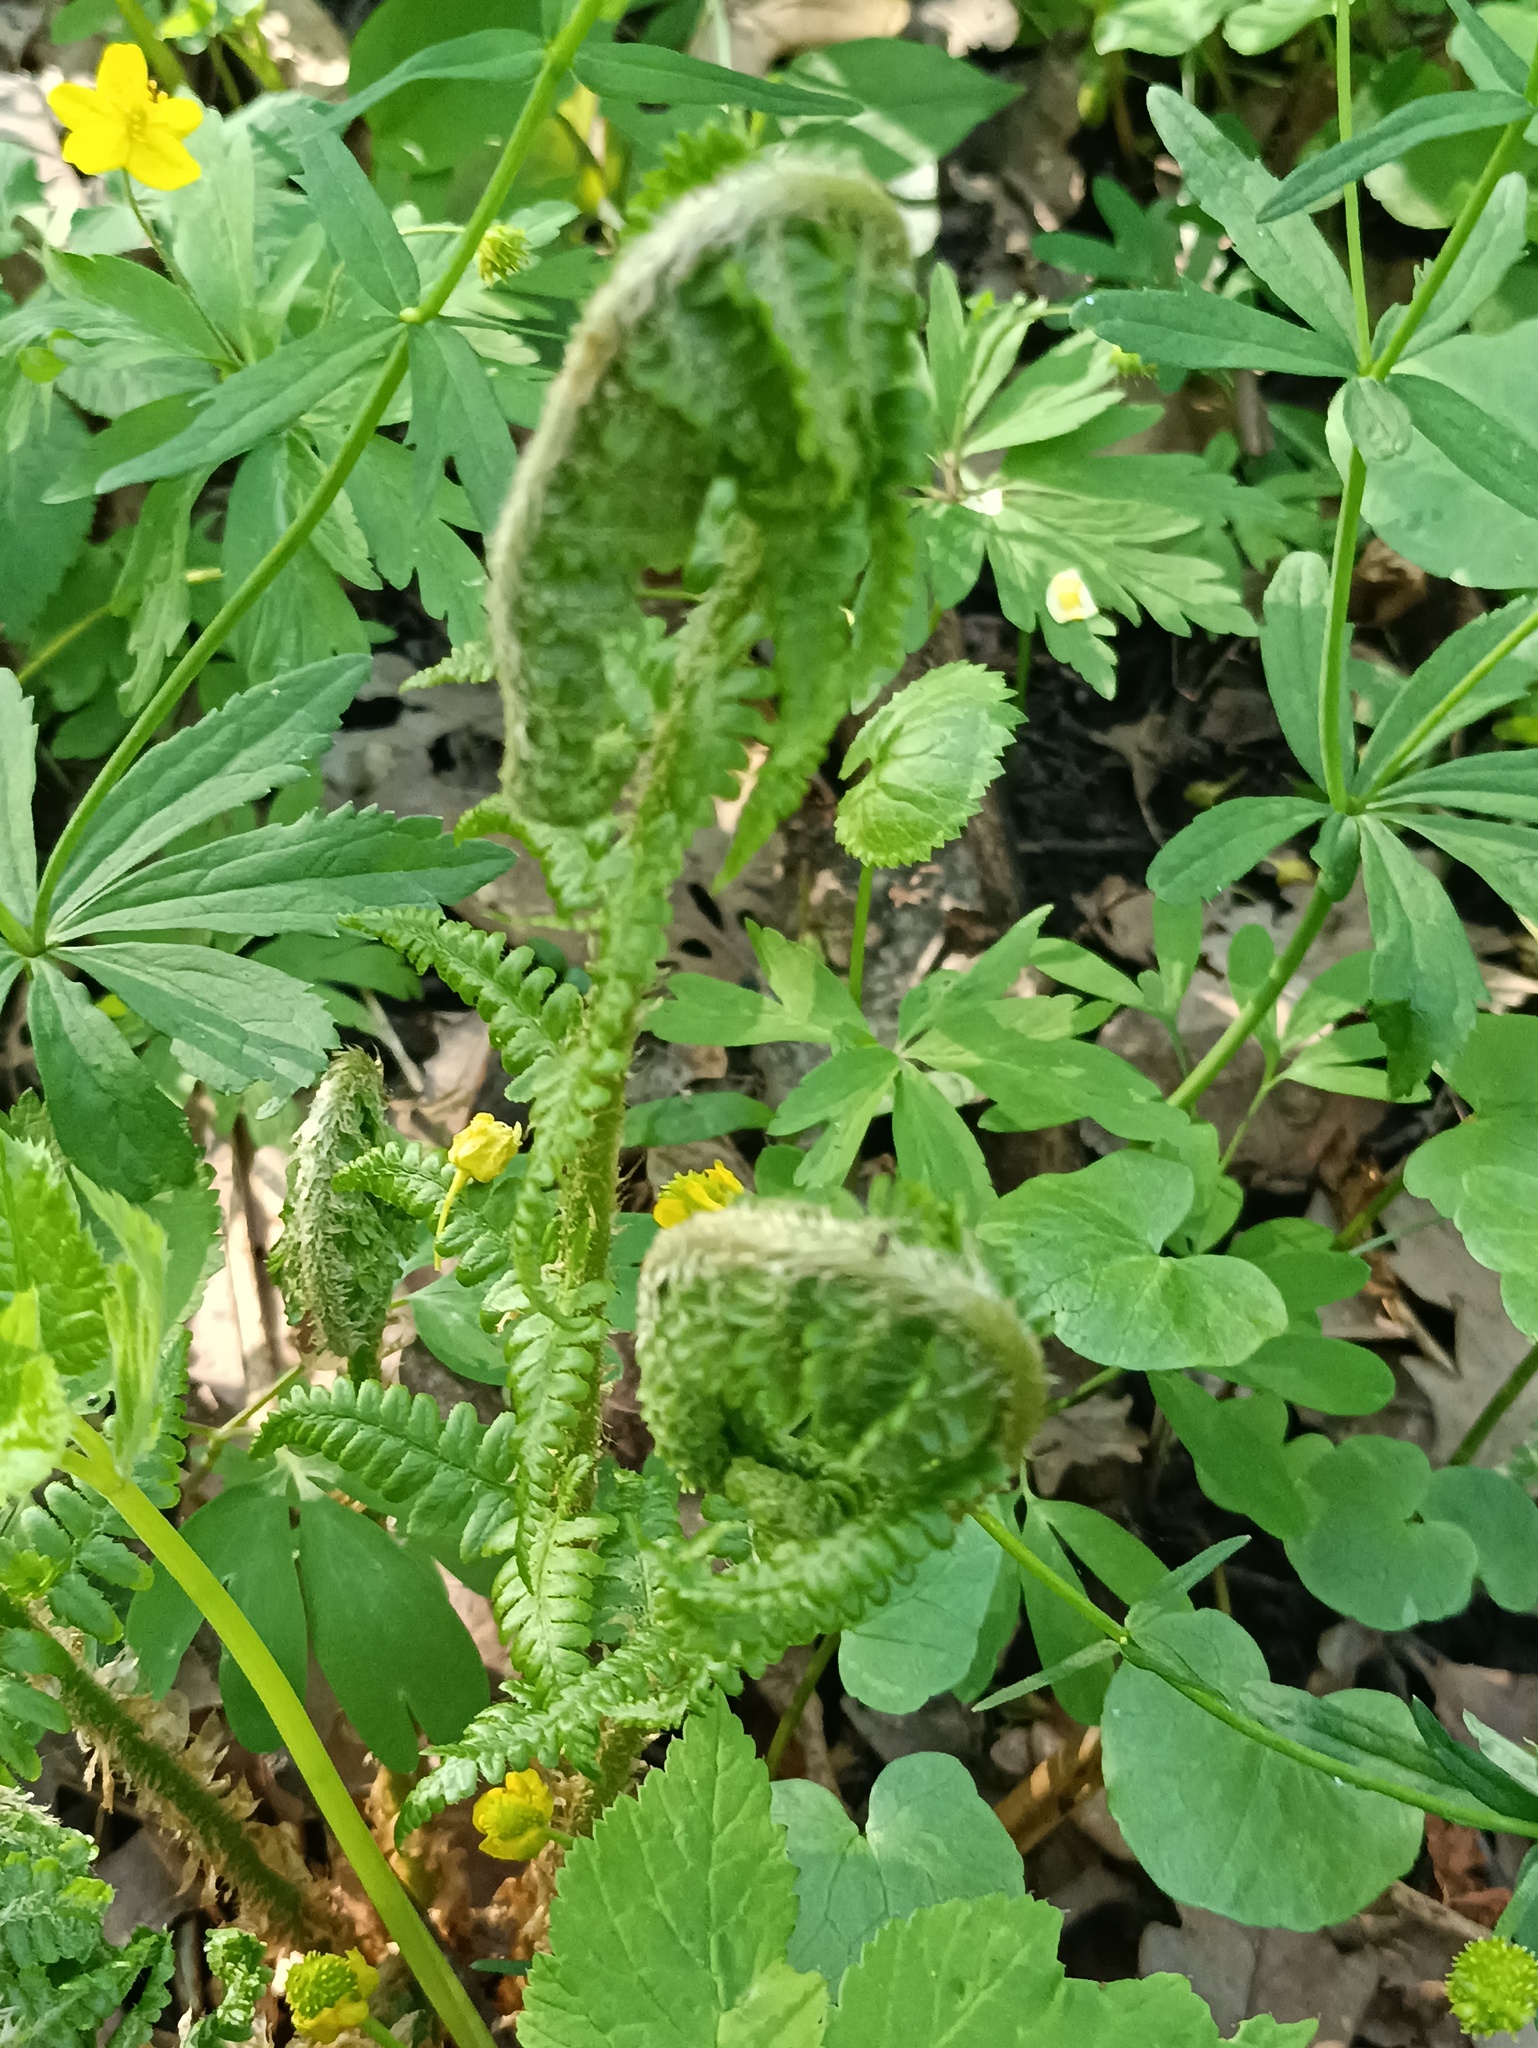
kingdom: Plantae
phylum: Tracheophyta
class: Polypodiopsida
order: Polypodiales
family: Dryopteridaceae
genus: Dryopteris
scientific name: Dryopteris filix-mas
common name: Male fern
